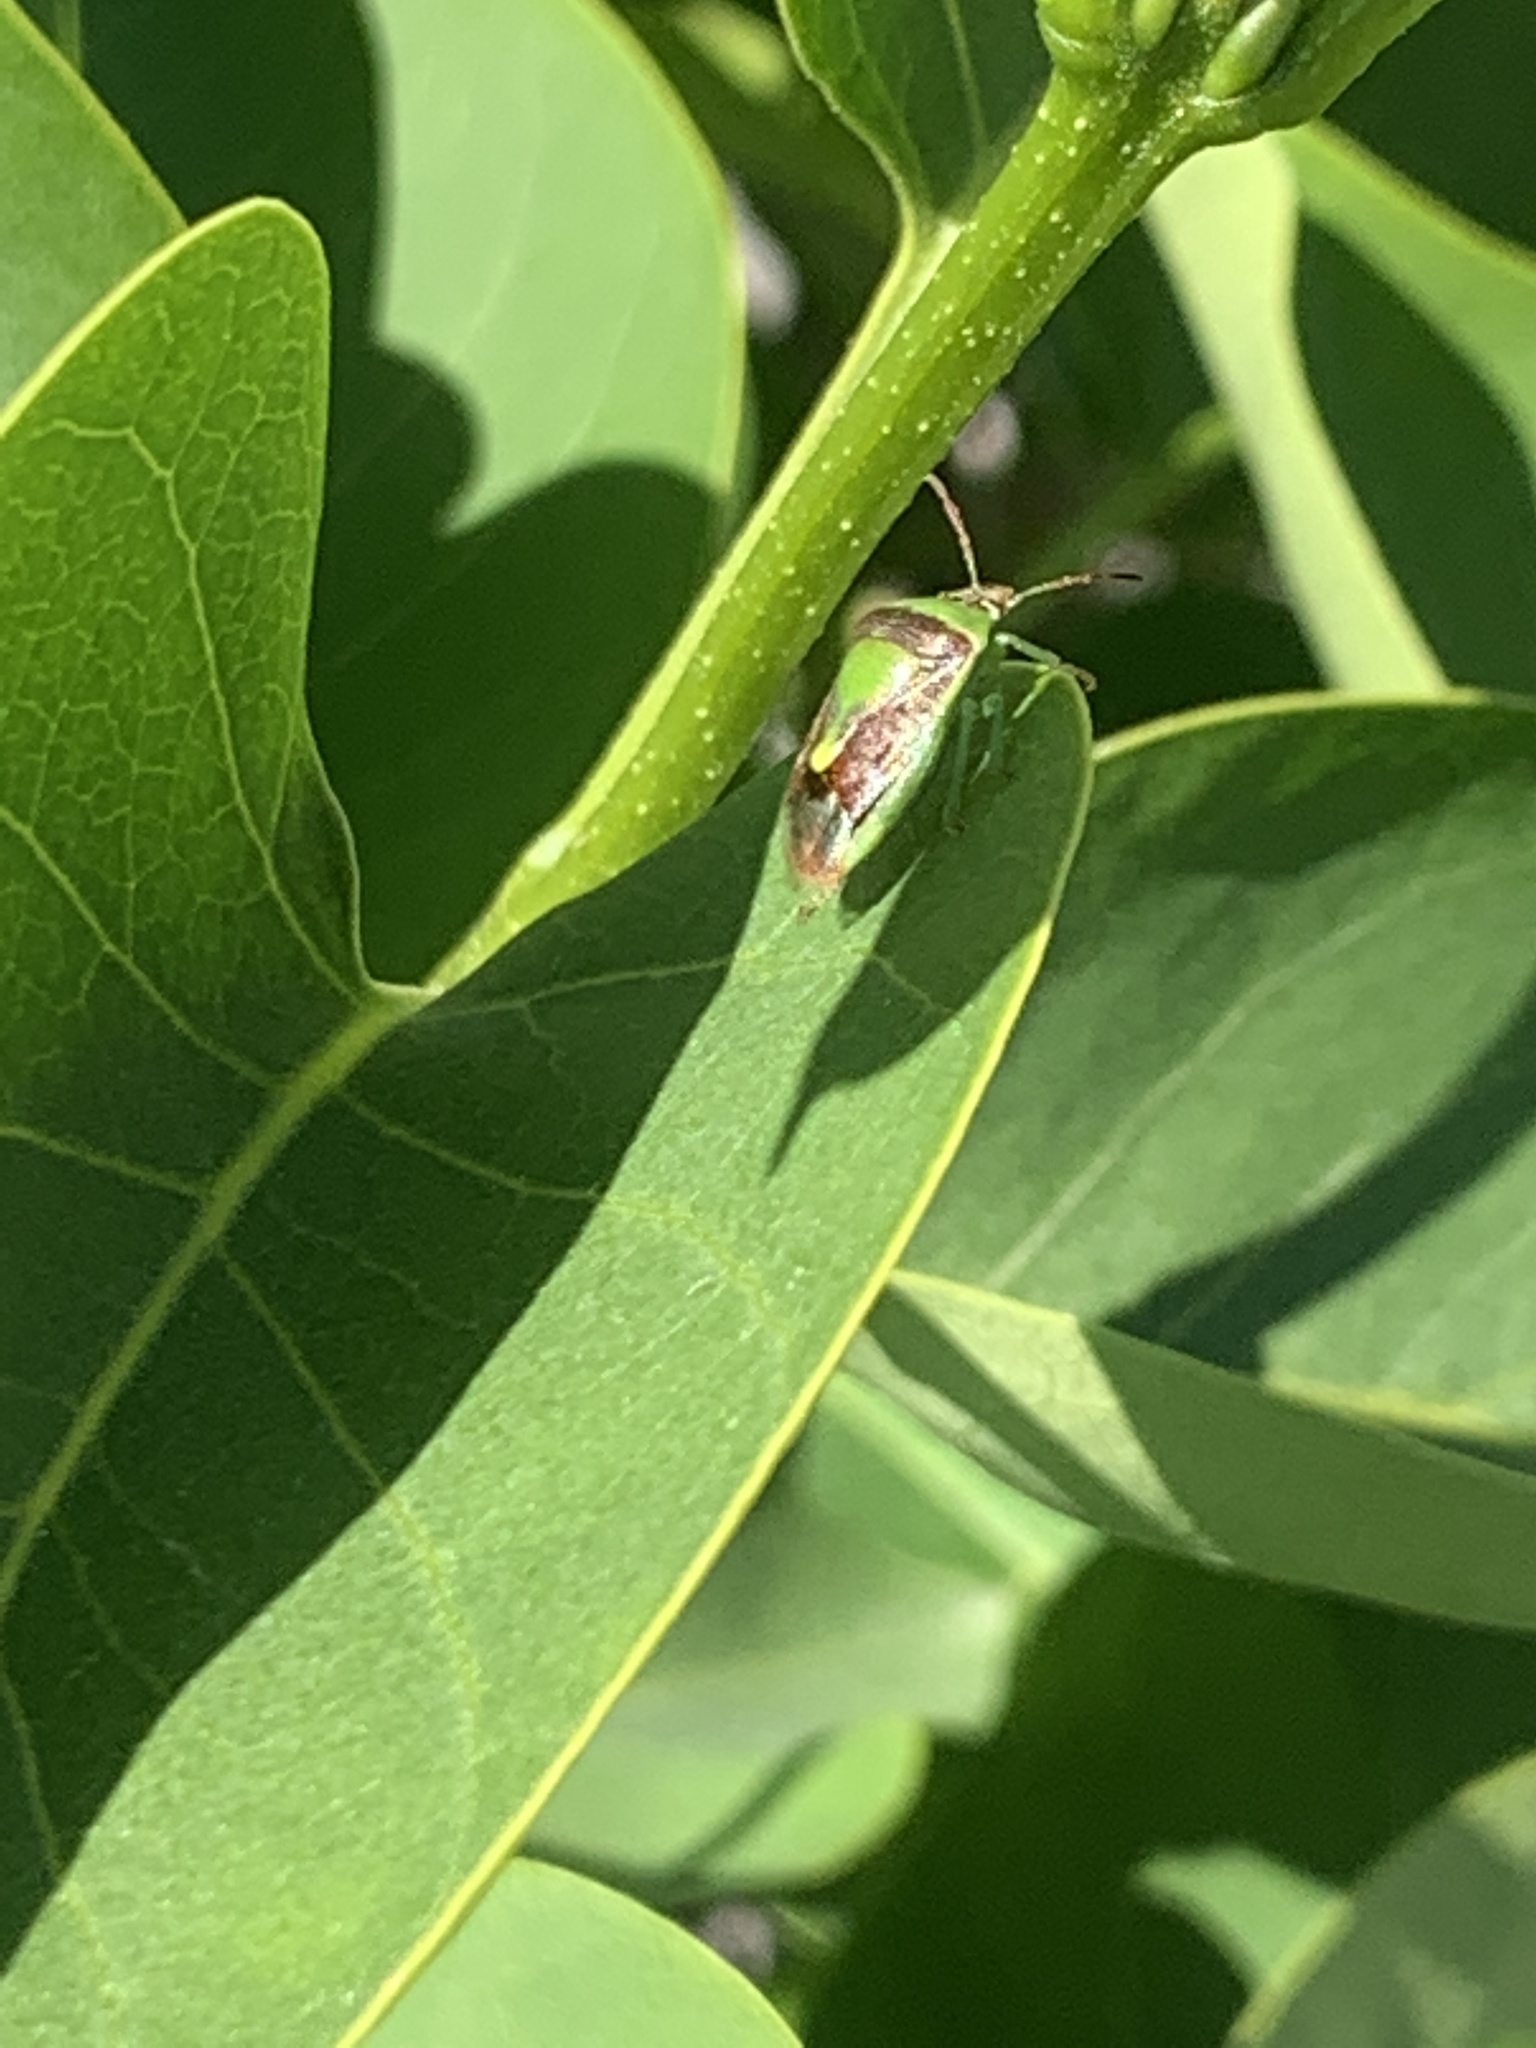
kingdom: Animalia
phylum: Arthropoda
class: Insecta
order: Hemiptera
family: Pentatomidae
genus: Banasa
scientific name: Banasa dimidiata
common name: Green burgundy stink bug
